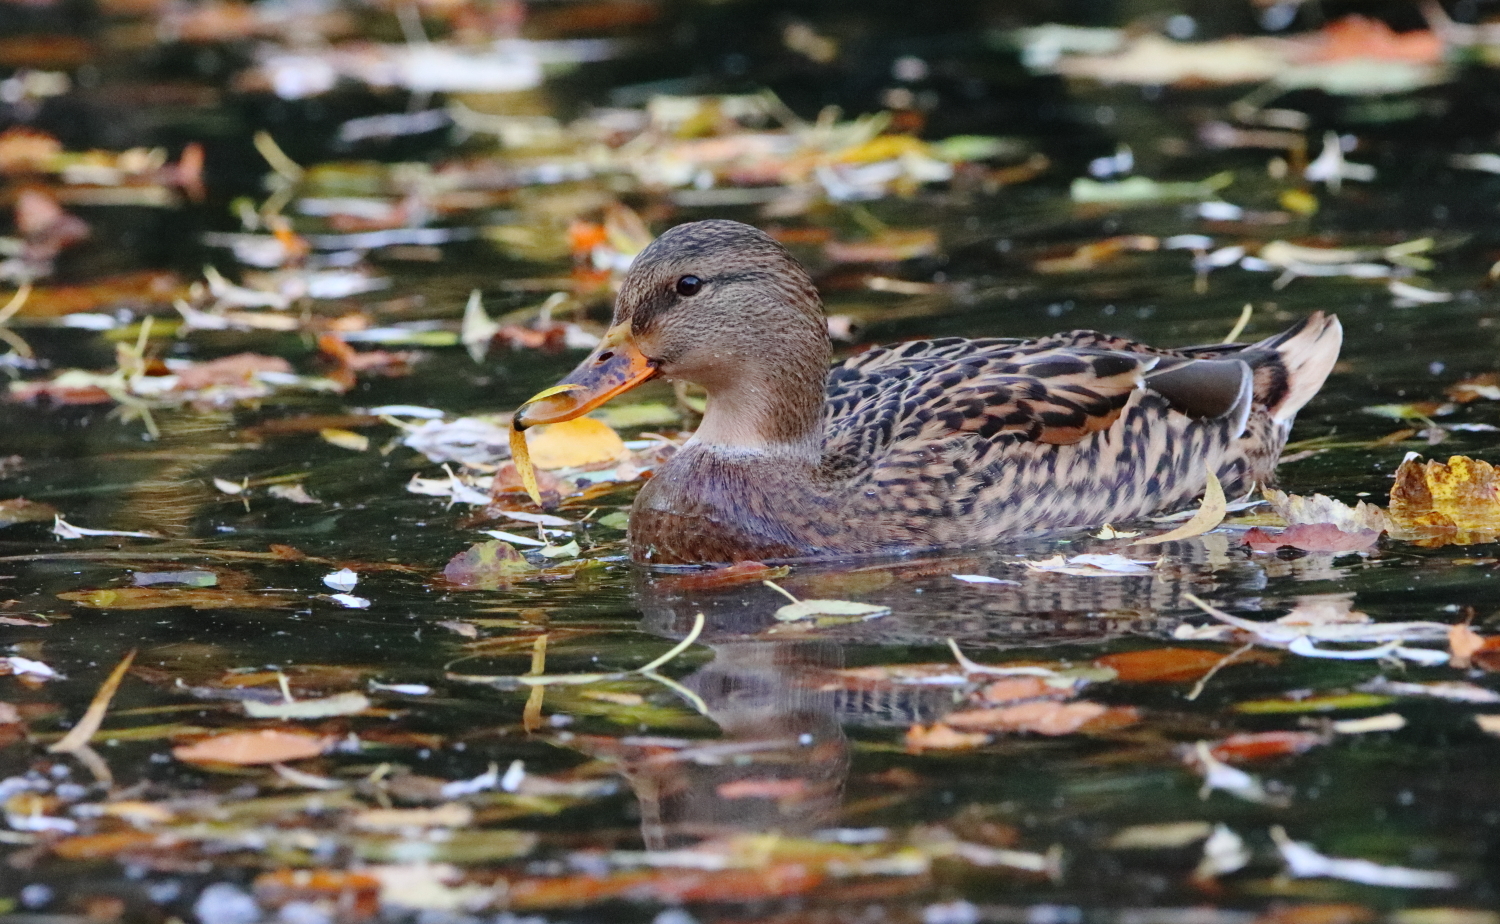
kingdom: Animalia
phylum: Chordata
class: Aves
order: Anseriformes
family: Anatidae
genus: Anas
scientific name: Anas platyrhynchos
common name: Mallard
